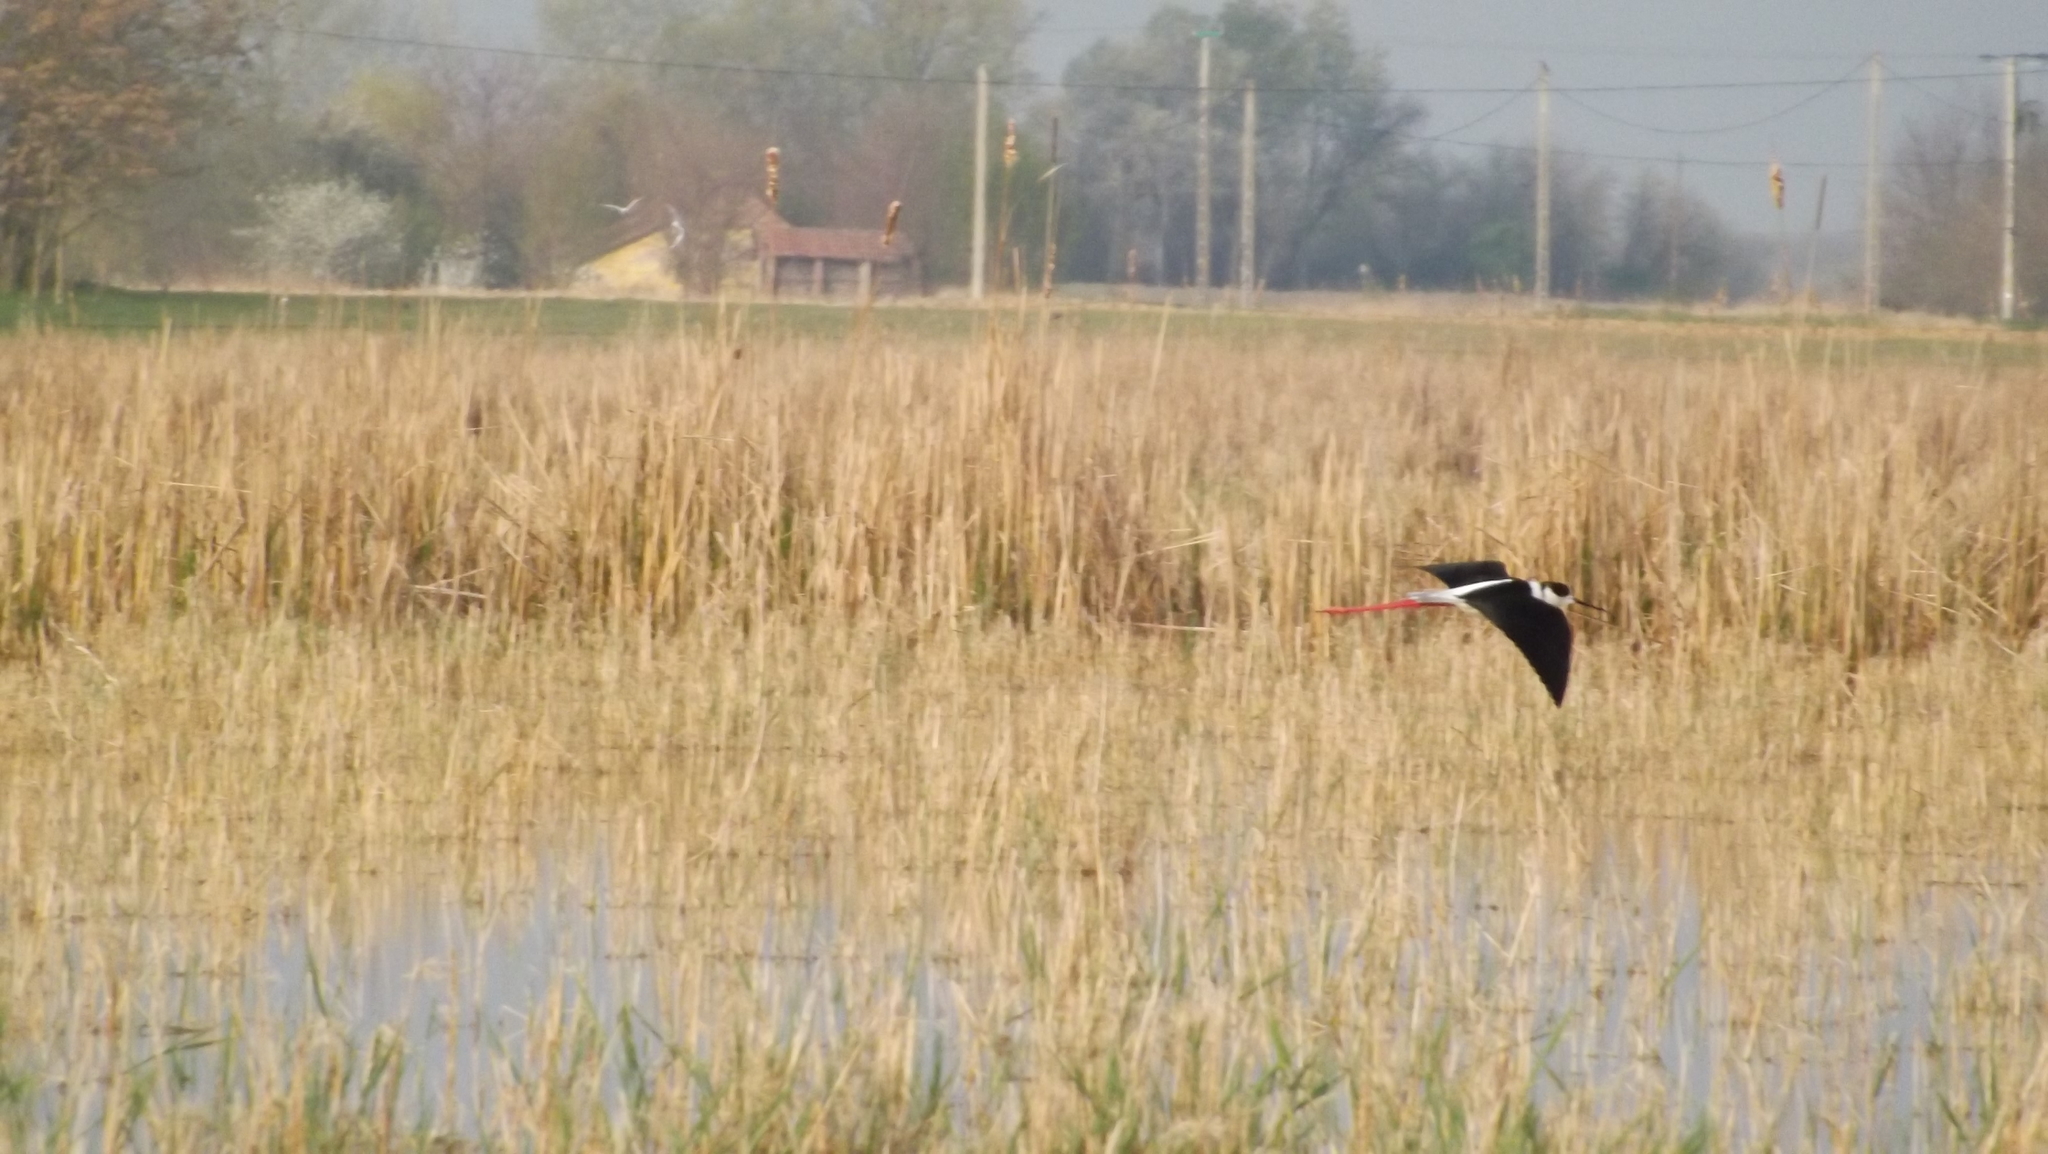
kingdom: Animalia
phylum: Chordata
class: Aves
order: Charadriiformes
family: Recurvirostridae
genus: Himantopus
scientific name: Himantopus himantopus
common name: Black-winged stilt
